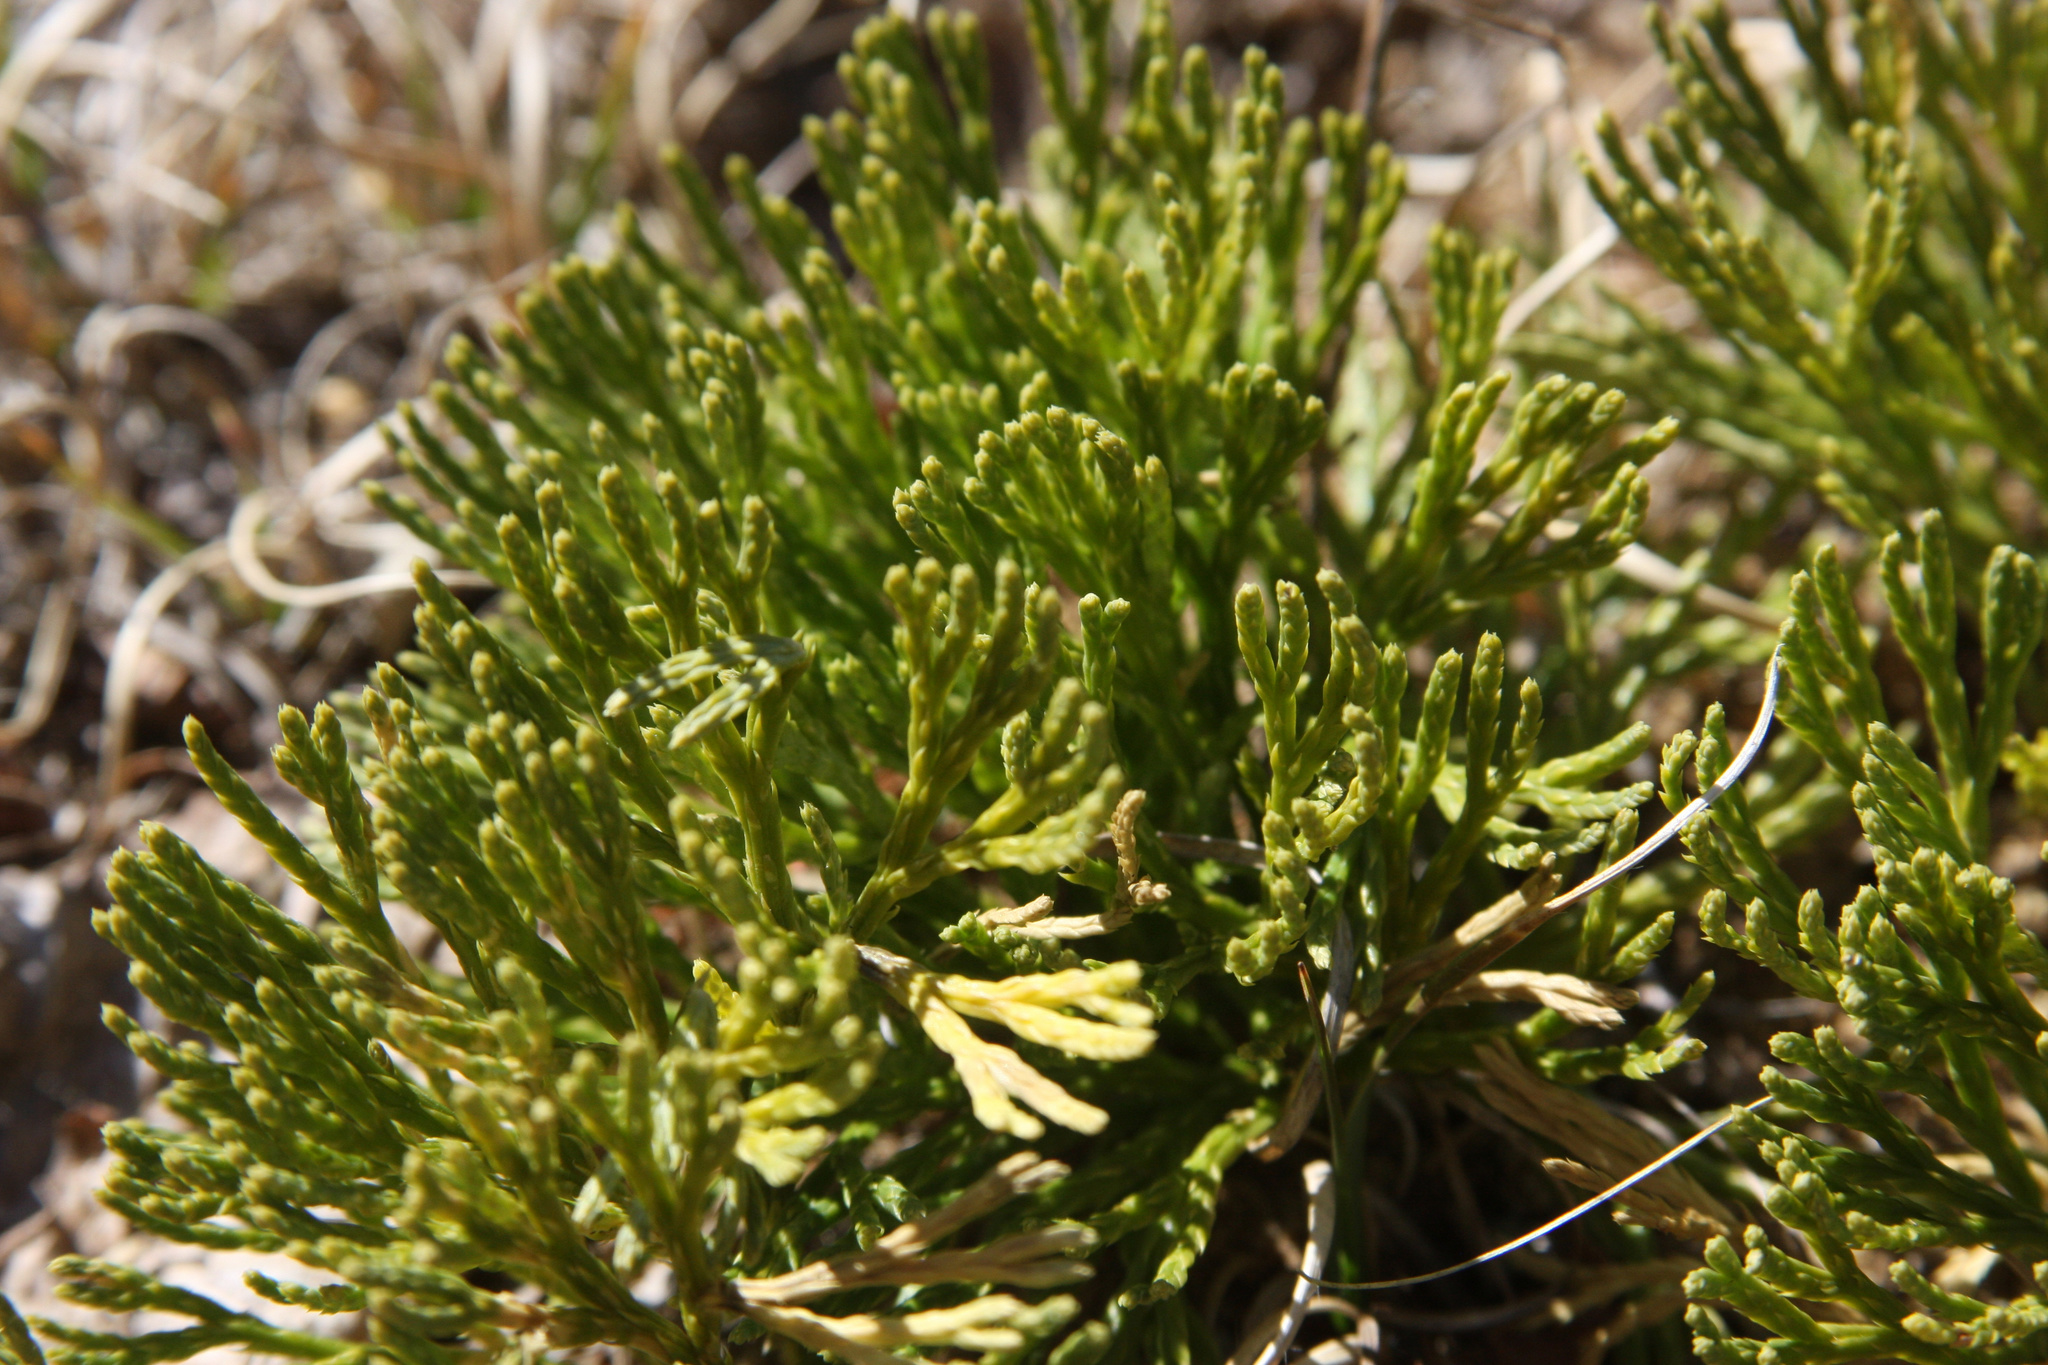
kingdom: Plantae
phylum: Tracheophyta
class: Lycopodiopsida
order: Lycopodiales
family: Lycopodiaceae
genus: Diphasiastrum
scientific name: Diphasiastrum tristachyum
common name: Blue ground-cedar
